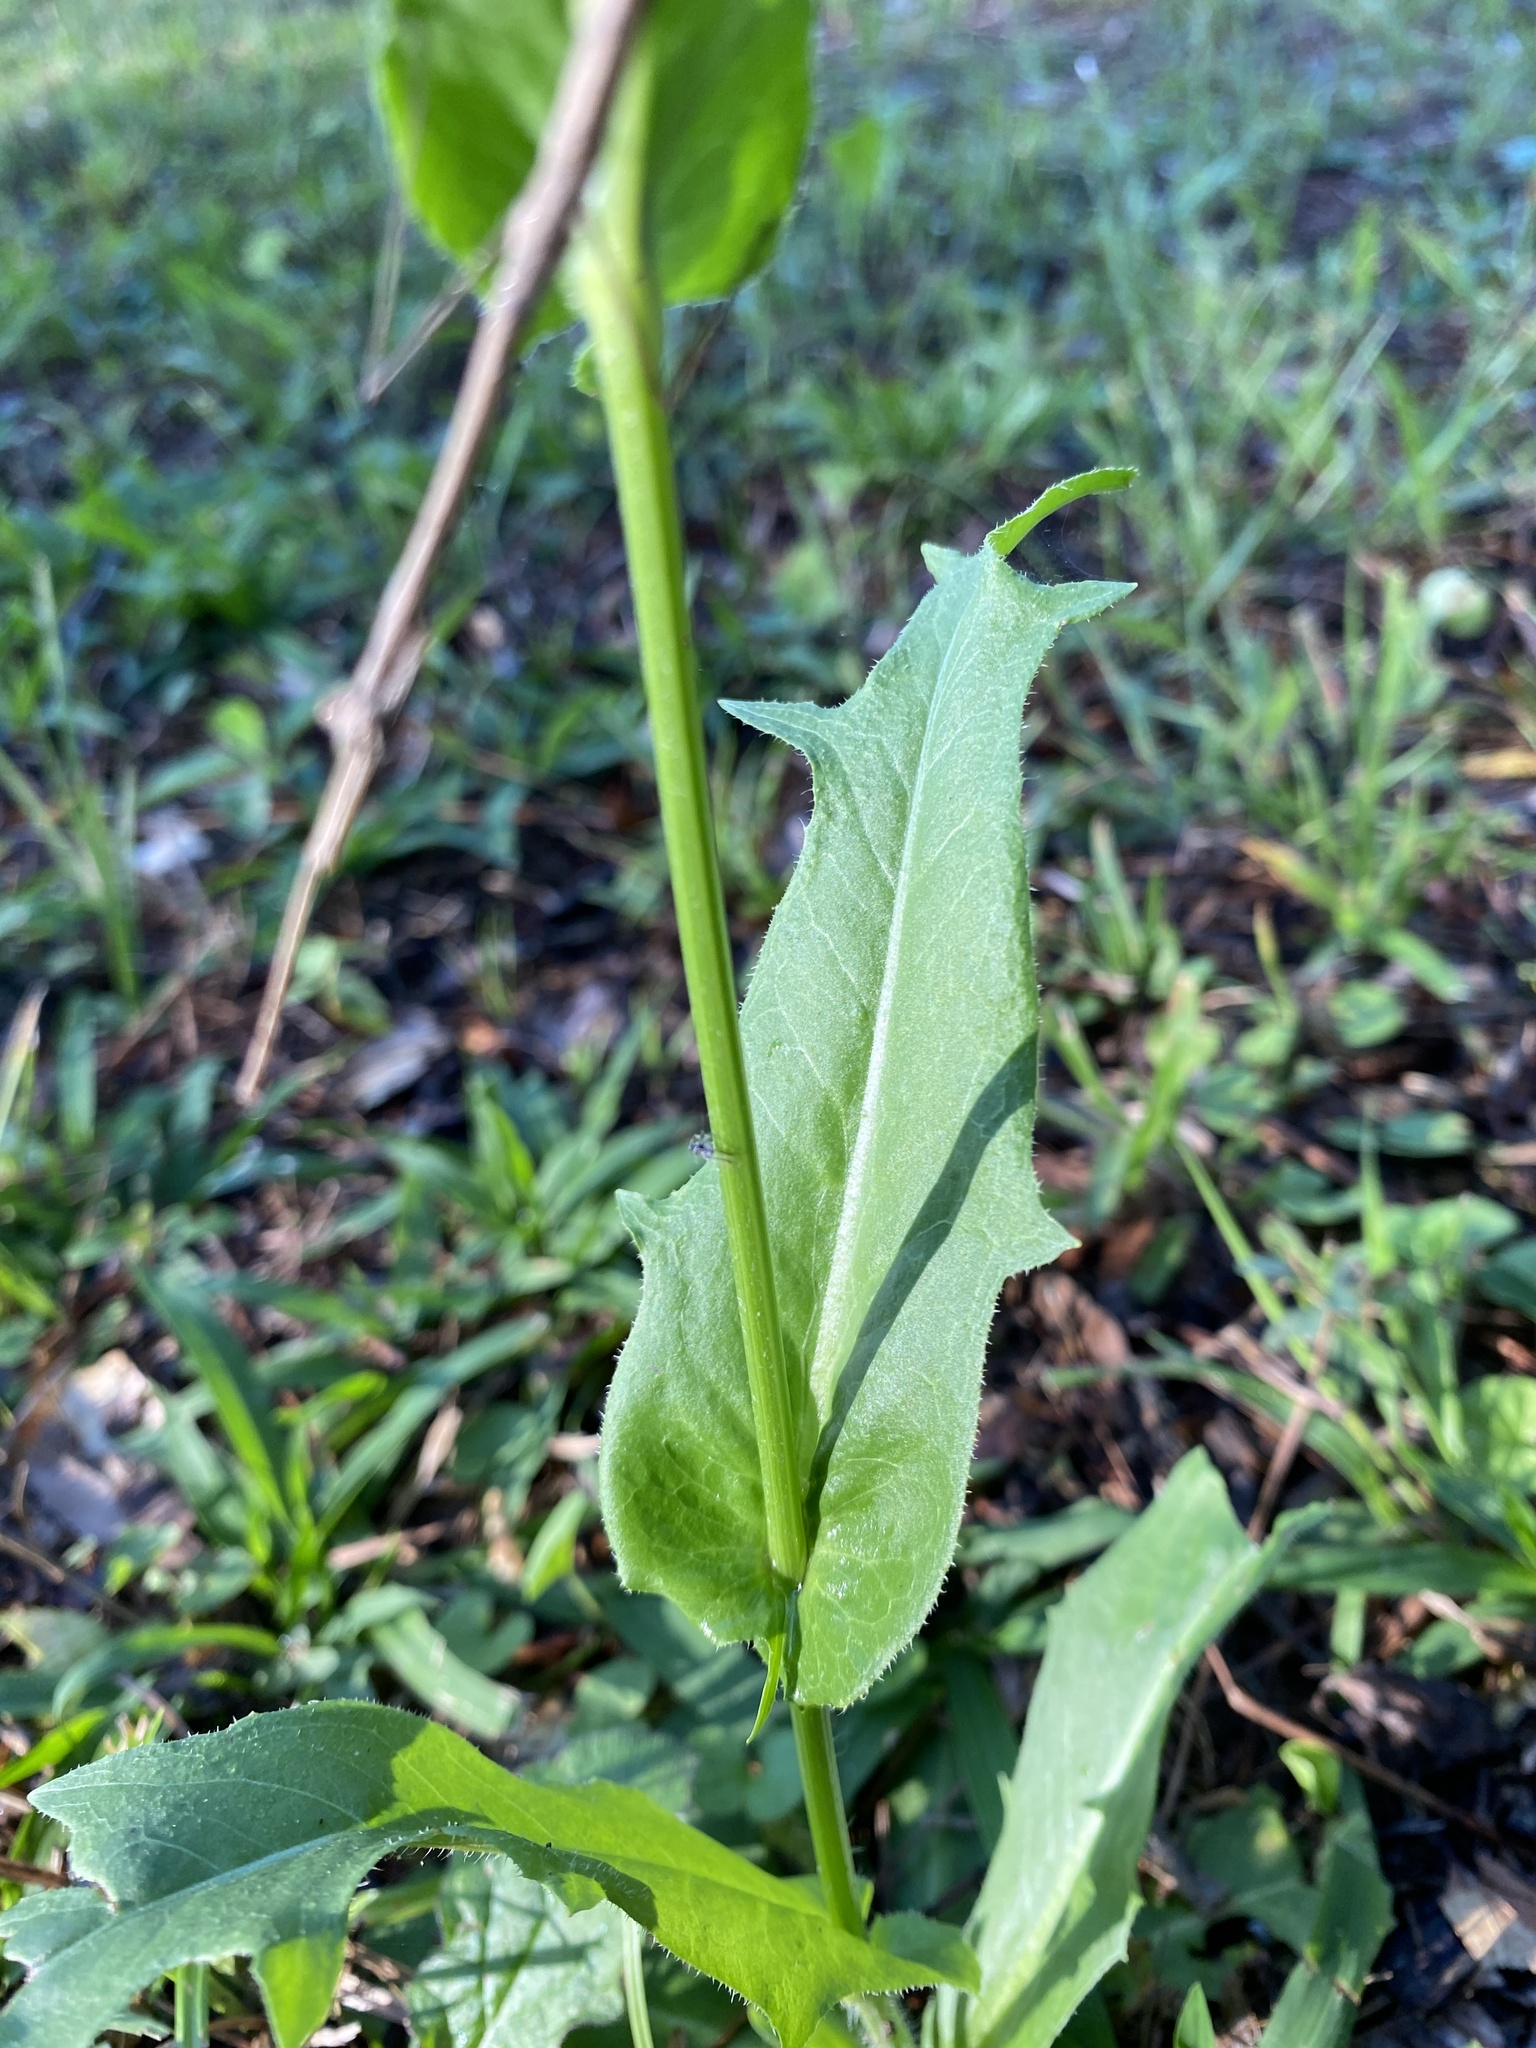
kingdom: Plantae
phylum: Tracheophyta
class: Magnoliopsida
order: Asterales
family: Asteraceae
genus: Hypochaeris
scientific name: Hypochaeris chillensis
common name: Brazilian cat's ear
